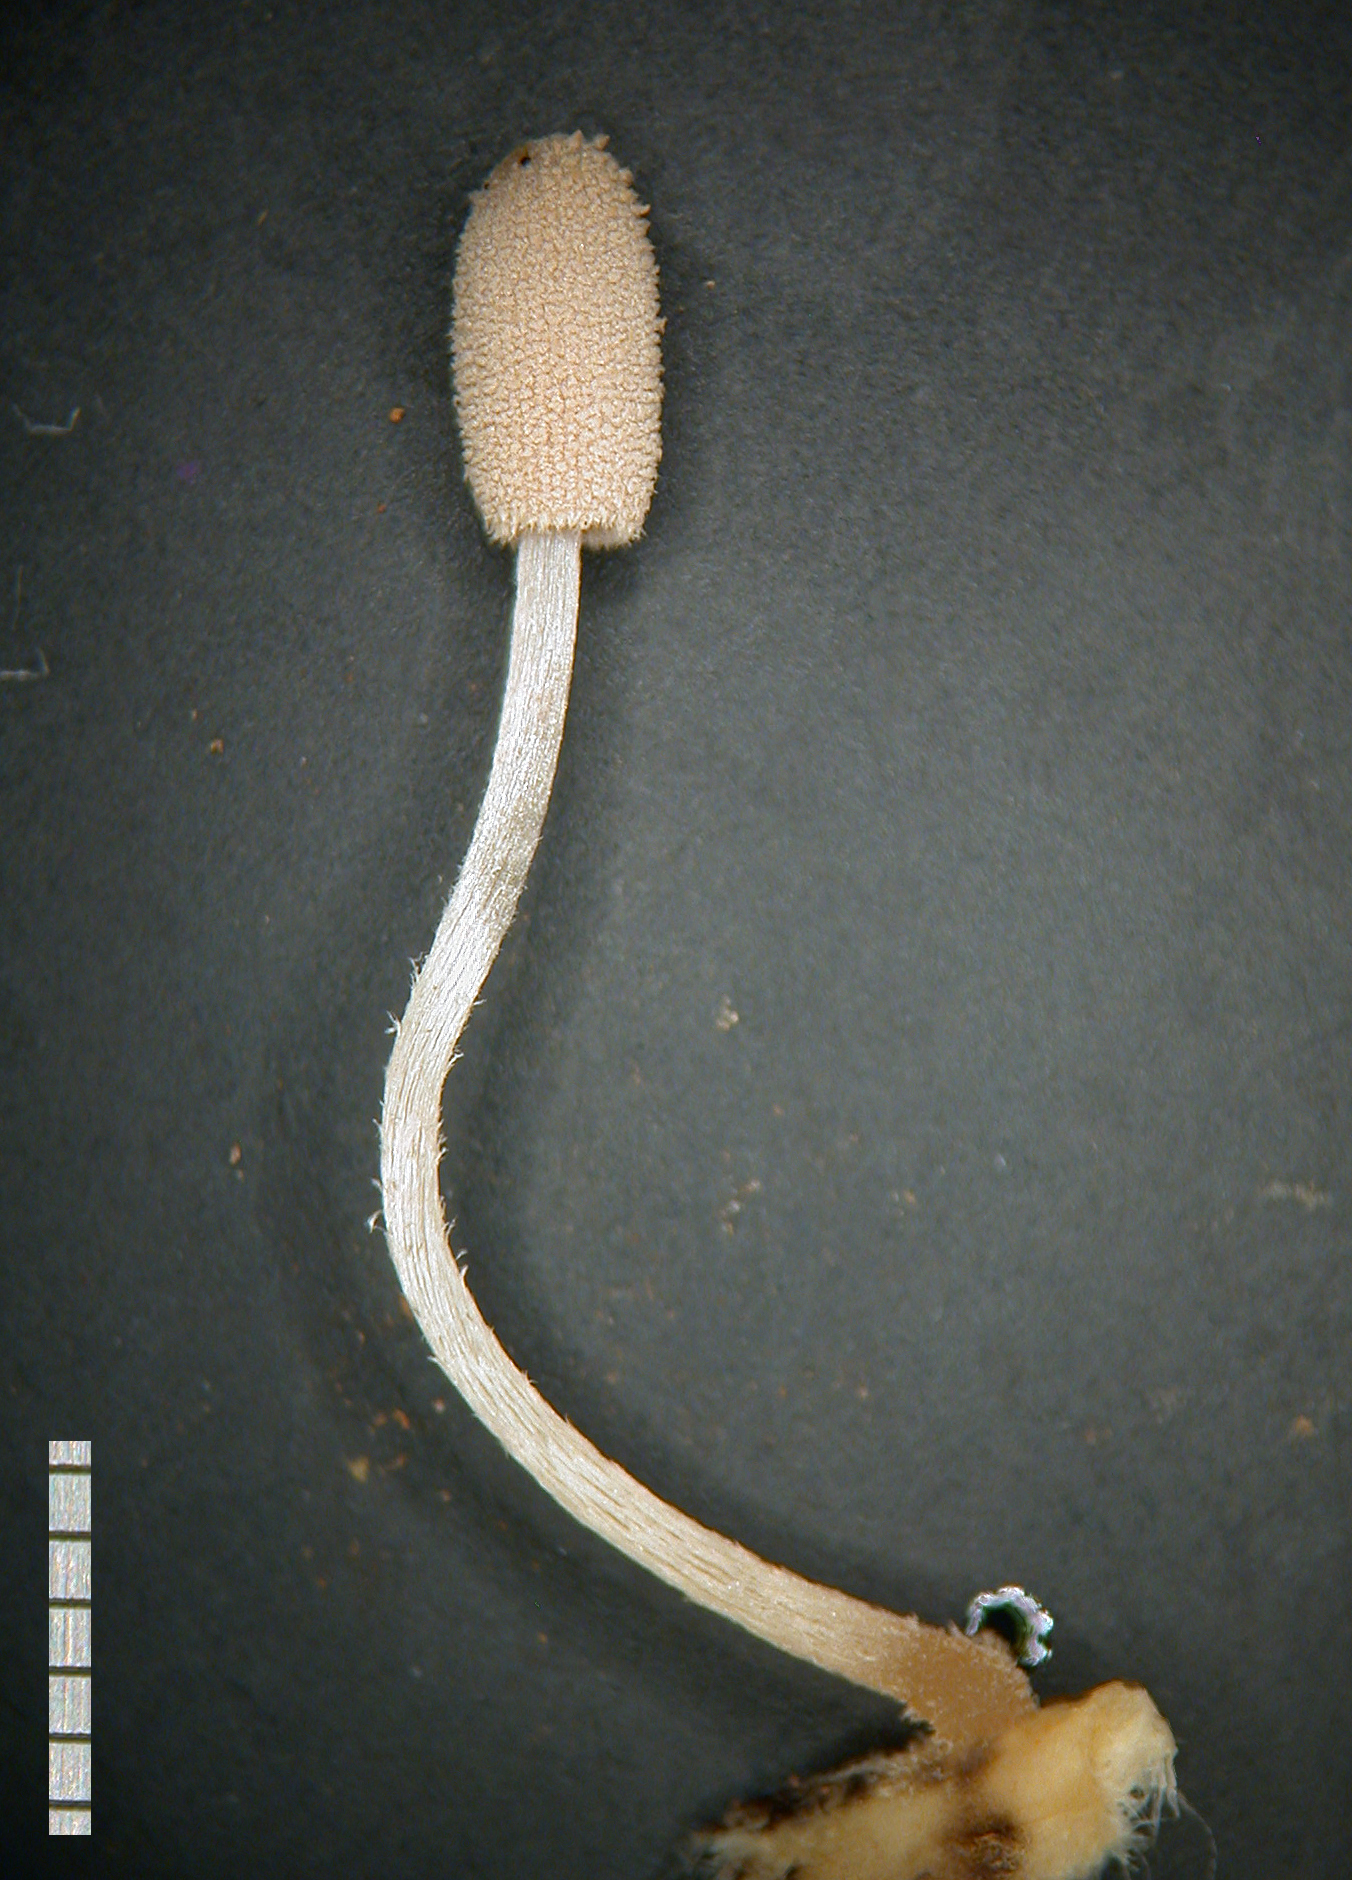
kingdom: Fungi
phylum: Basidiomycota
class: Agaricomycetes
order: Agaricales
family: Psathyrellaceae
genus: Narcissea
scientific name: Narcissea patouillardii
